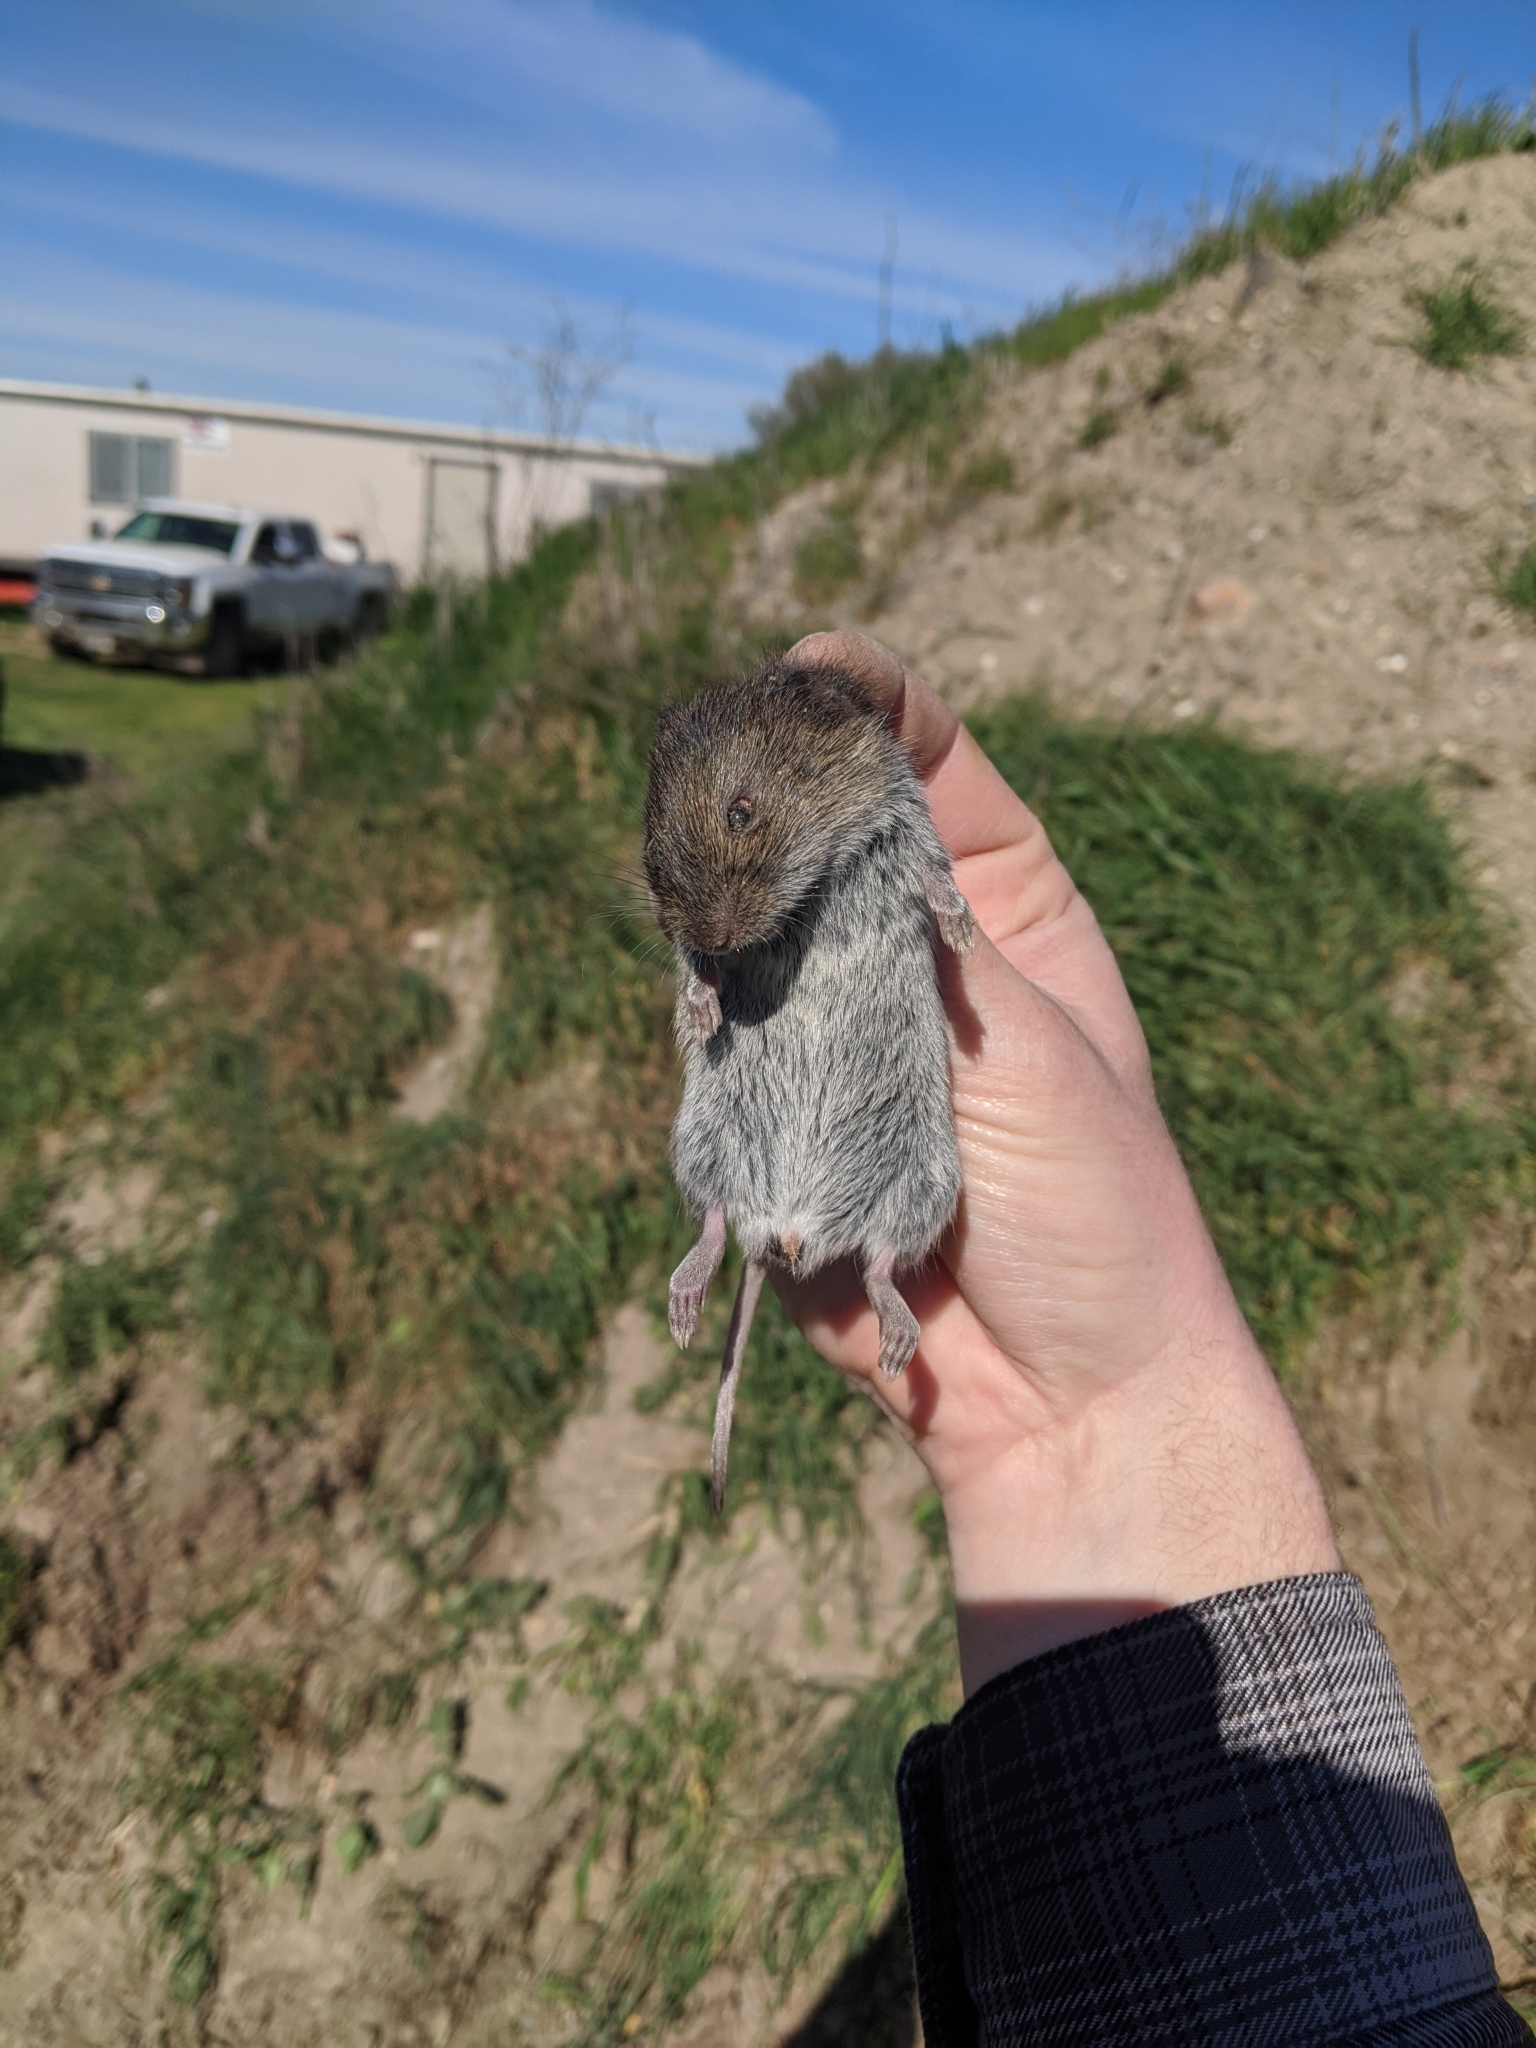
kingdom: Animalia
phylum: Chordata
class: Mammalia
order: Rodentia
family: Cricetidae
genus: Microtus
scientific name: Microtus californicus
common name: California vole
